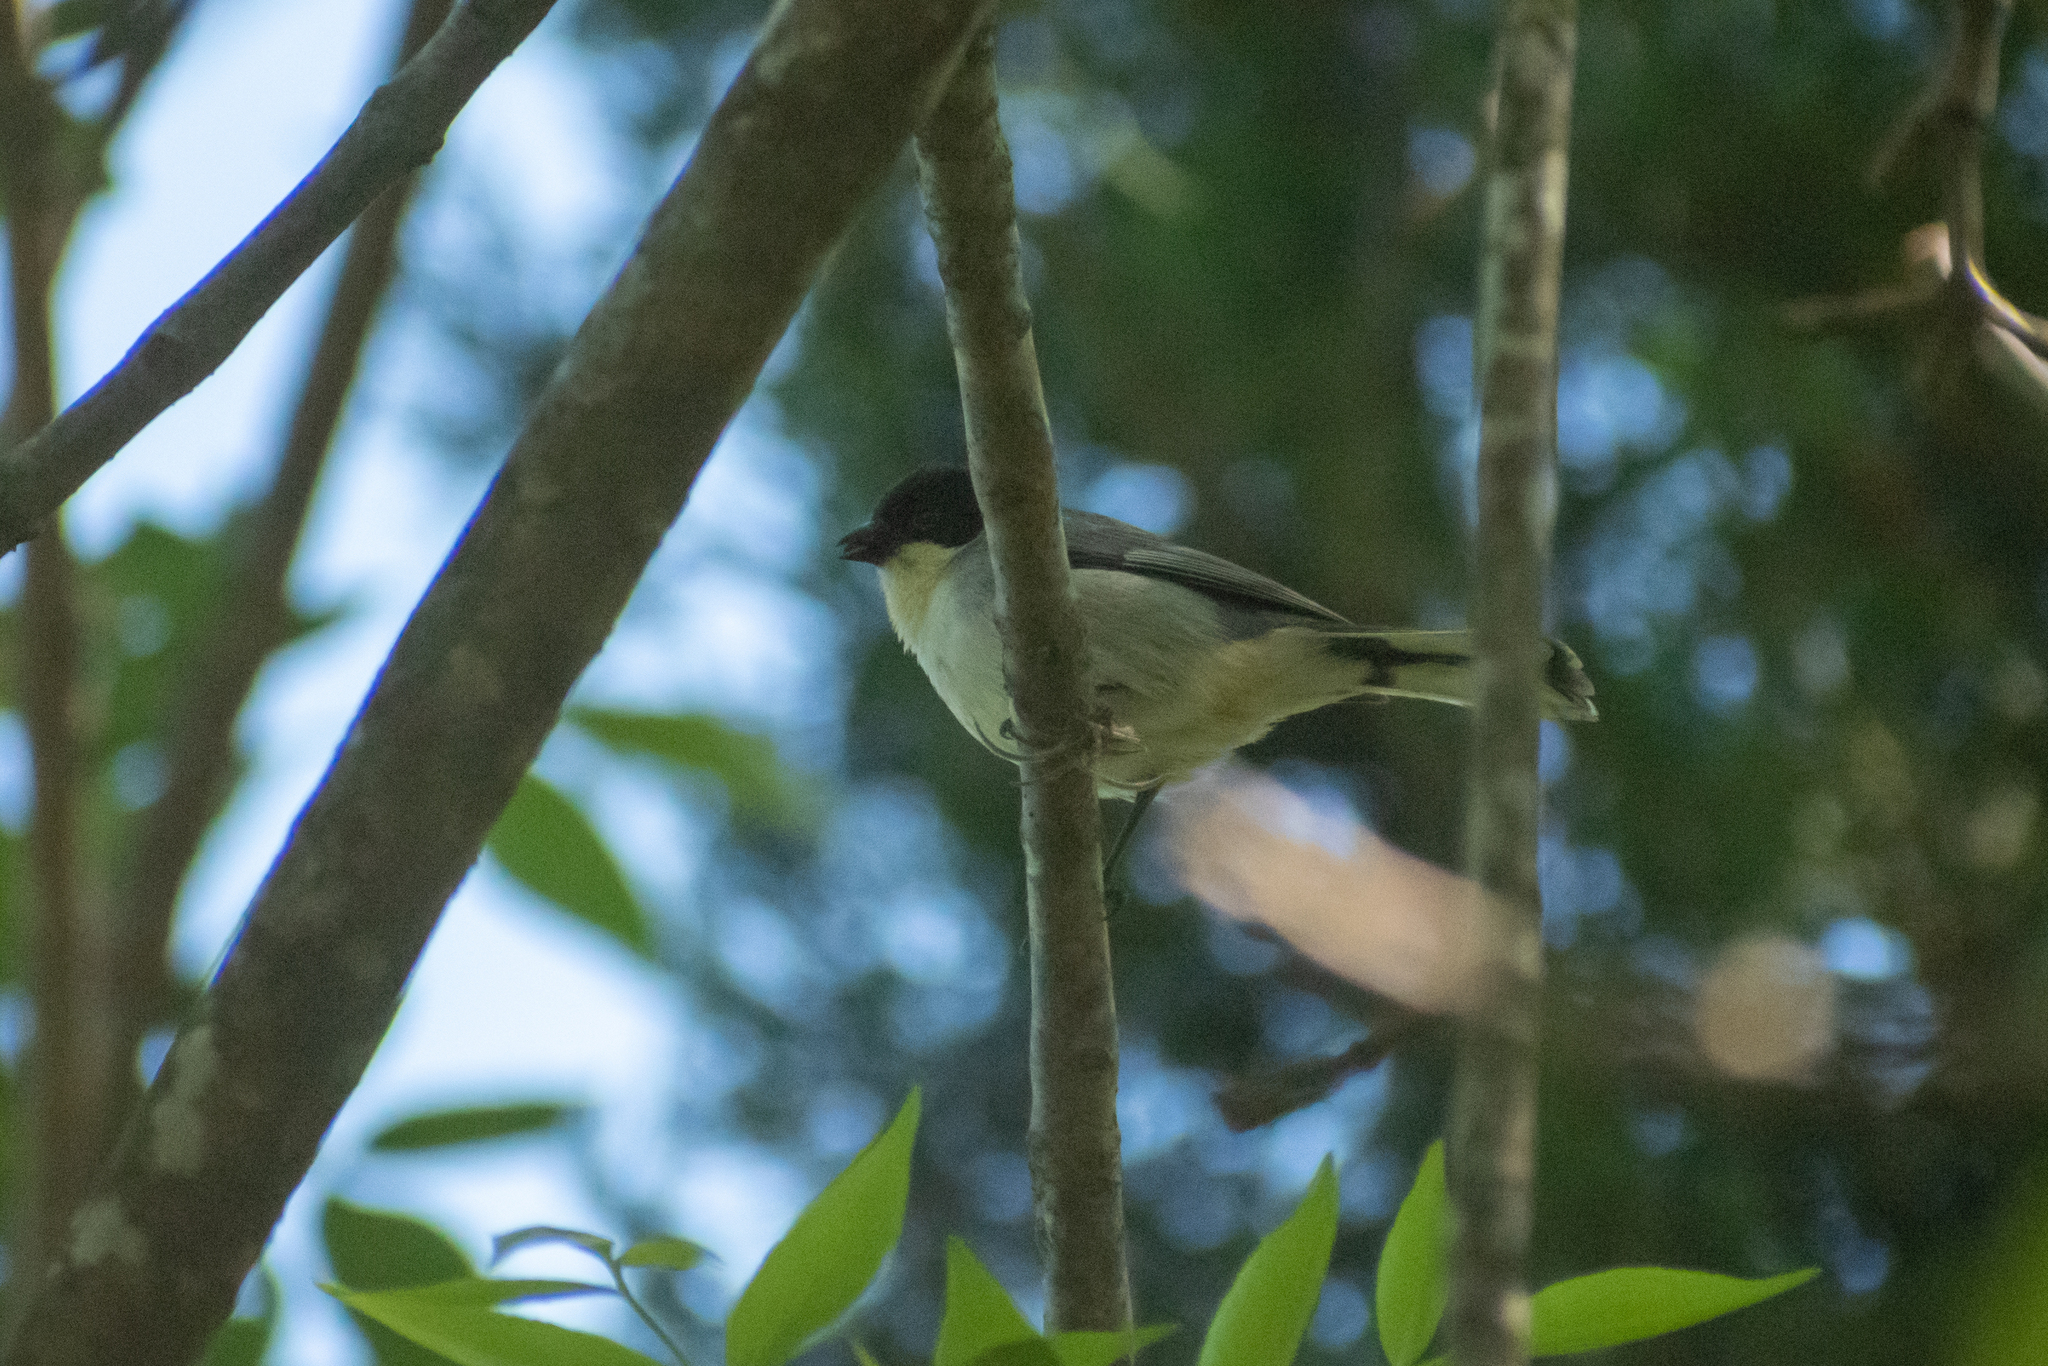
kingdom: Animalia
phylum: Chordata
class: Aves
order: Passeriformes
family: Thraupidae
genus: Microspingus
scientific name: Microspingus melanoleucus
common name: Black-capped warbling-finch
